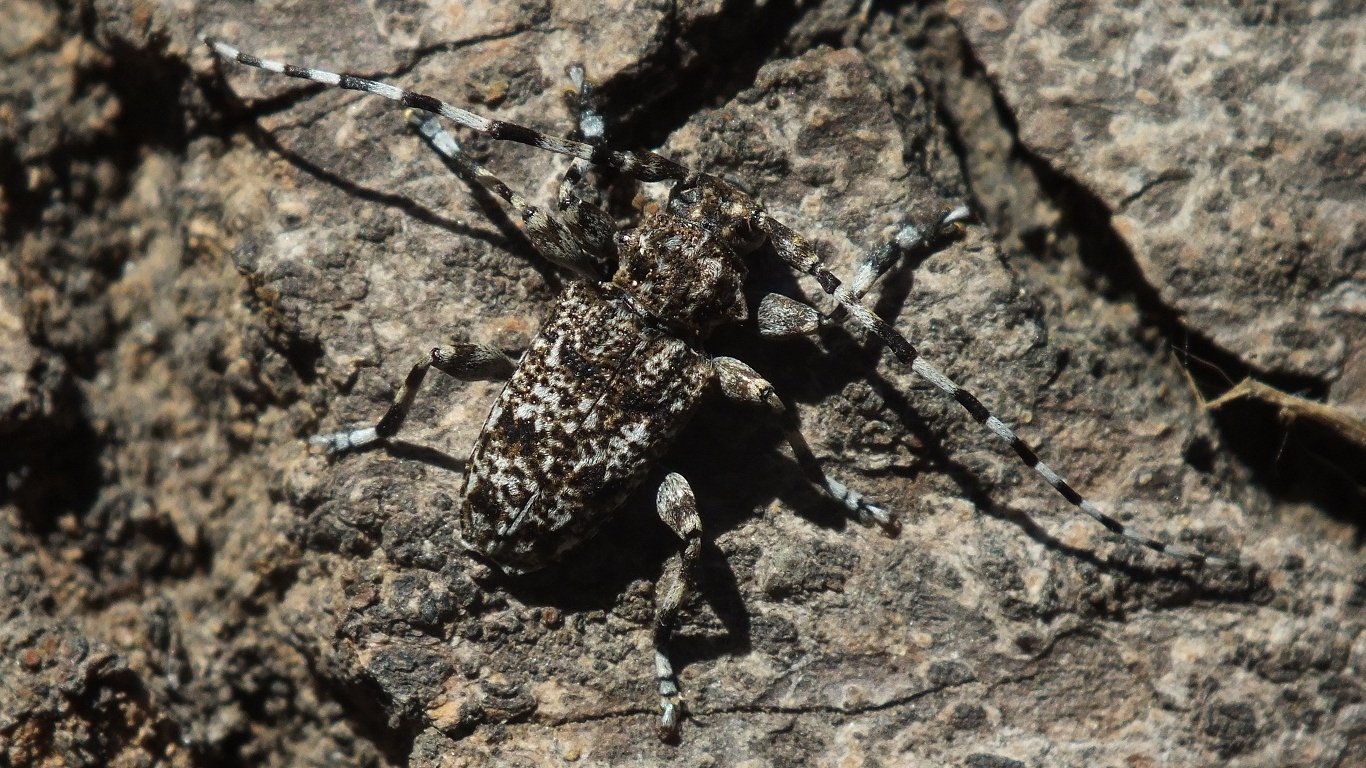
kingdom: Animalia
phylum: Arthropoda
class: Insecta
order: Coleoptera
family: Cerambycidae
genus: Aegomorphus
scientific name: Aegomorphus clavipes
